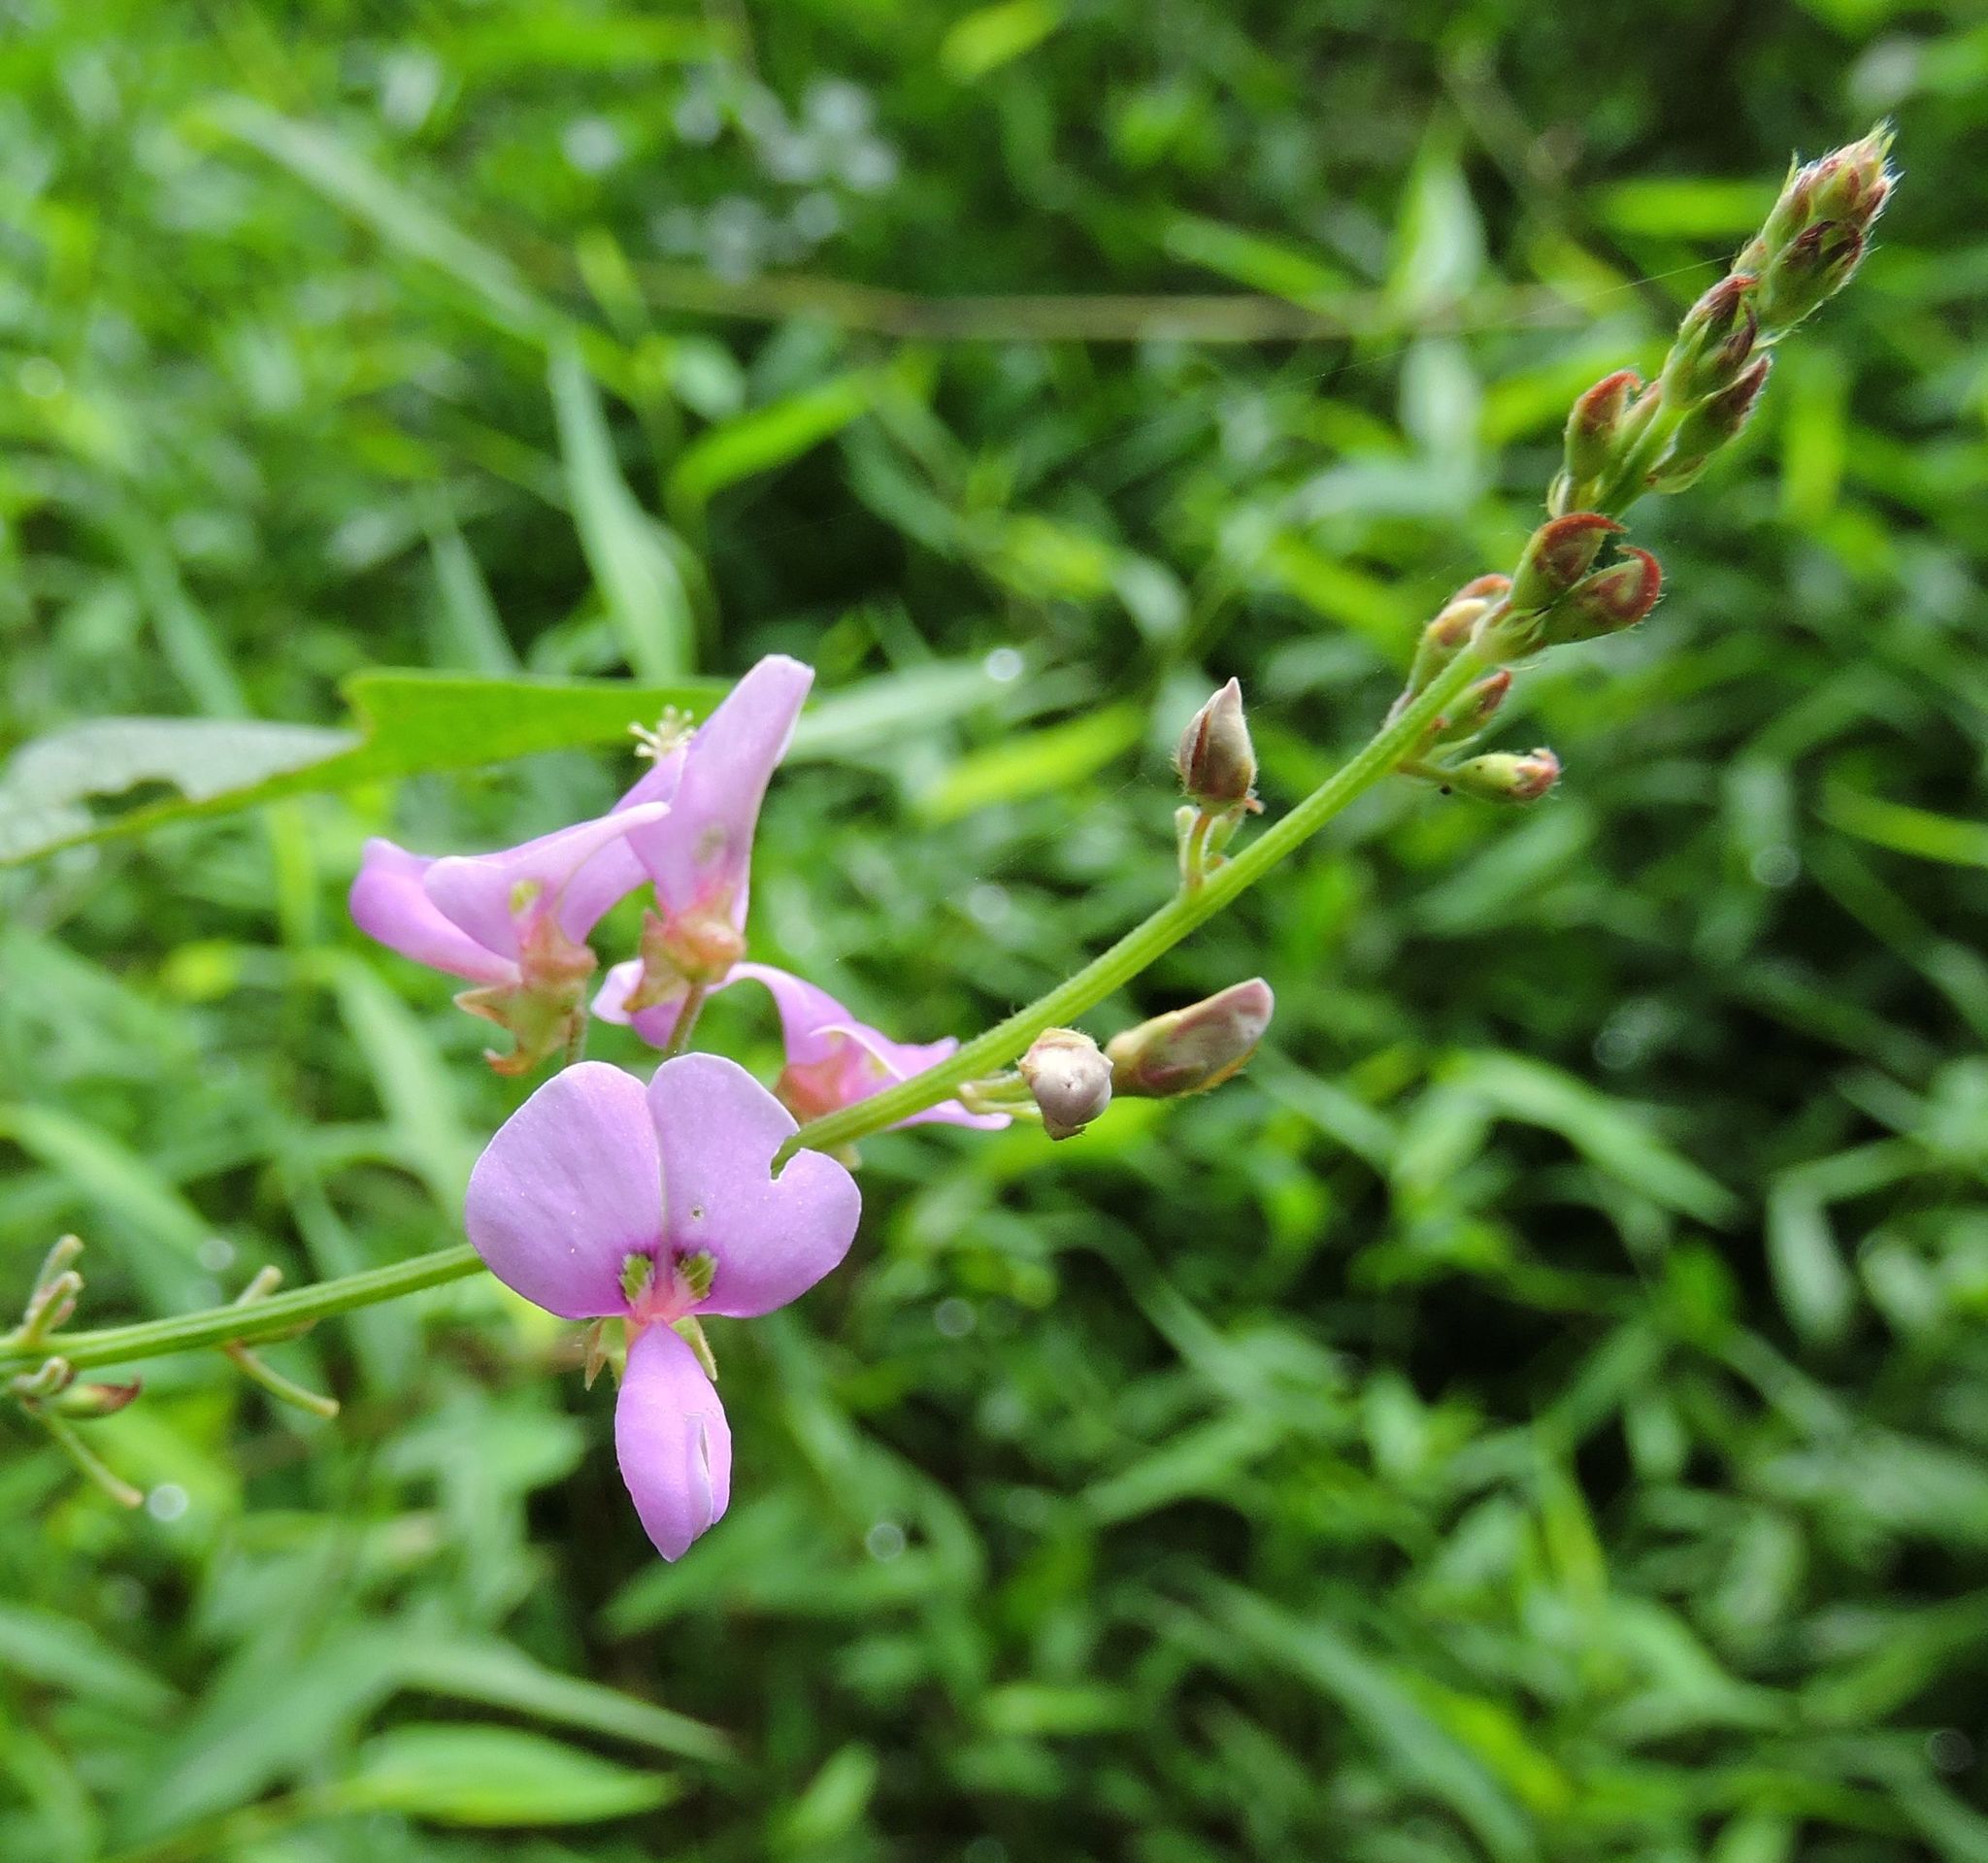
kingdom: Plantae
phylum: Tracheophyta
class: Magnoliopsida
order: Fabales
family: Fabaceae
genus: Desmodium
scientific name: Desmodium glabellum
